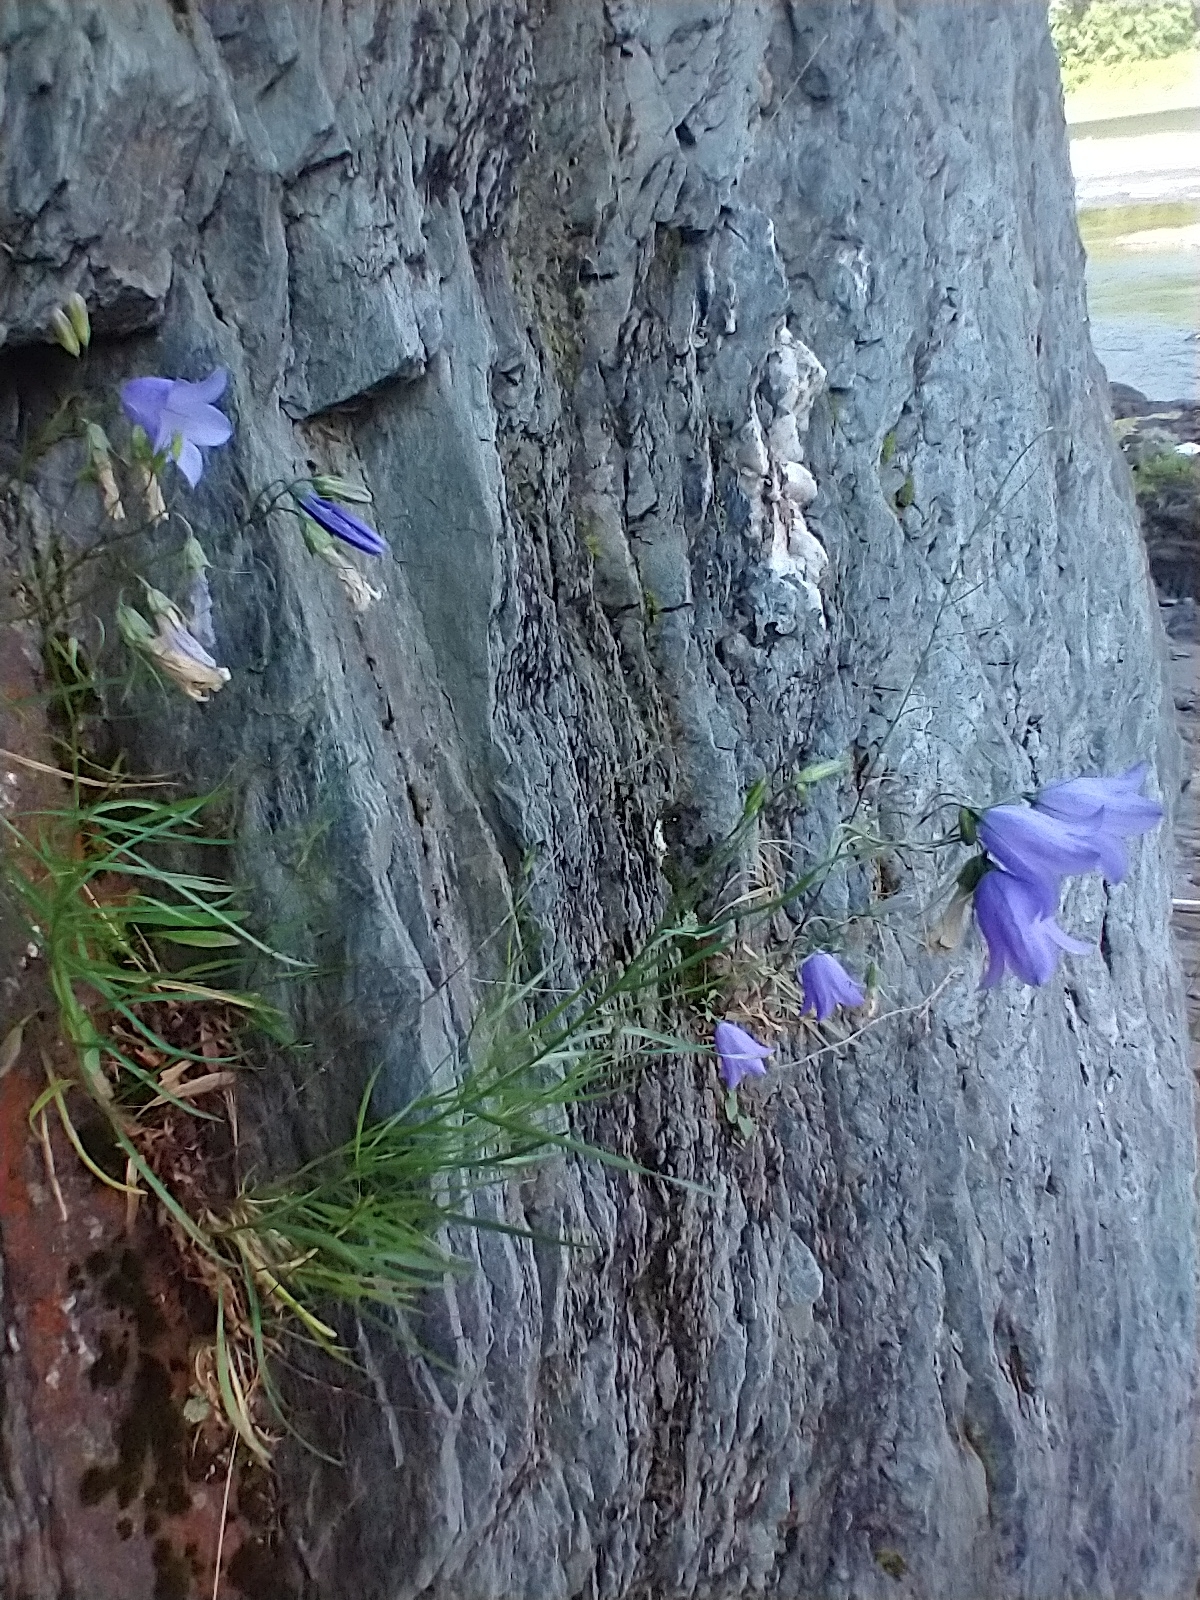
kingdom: Plantae
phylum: Tracheophyta
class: Magnoliopsida
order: Asterales
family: Campanulaceae
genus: Campanula
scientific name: Campanula intercedens
